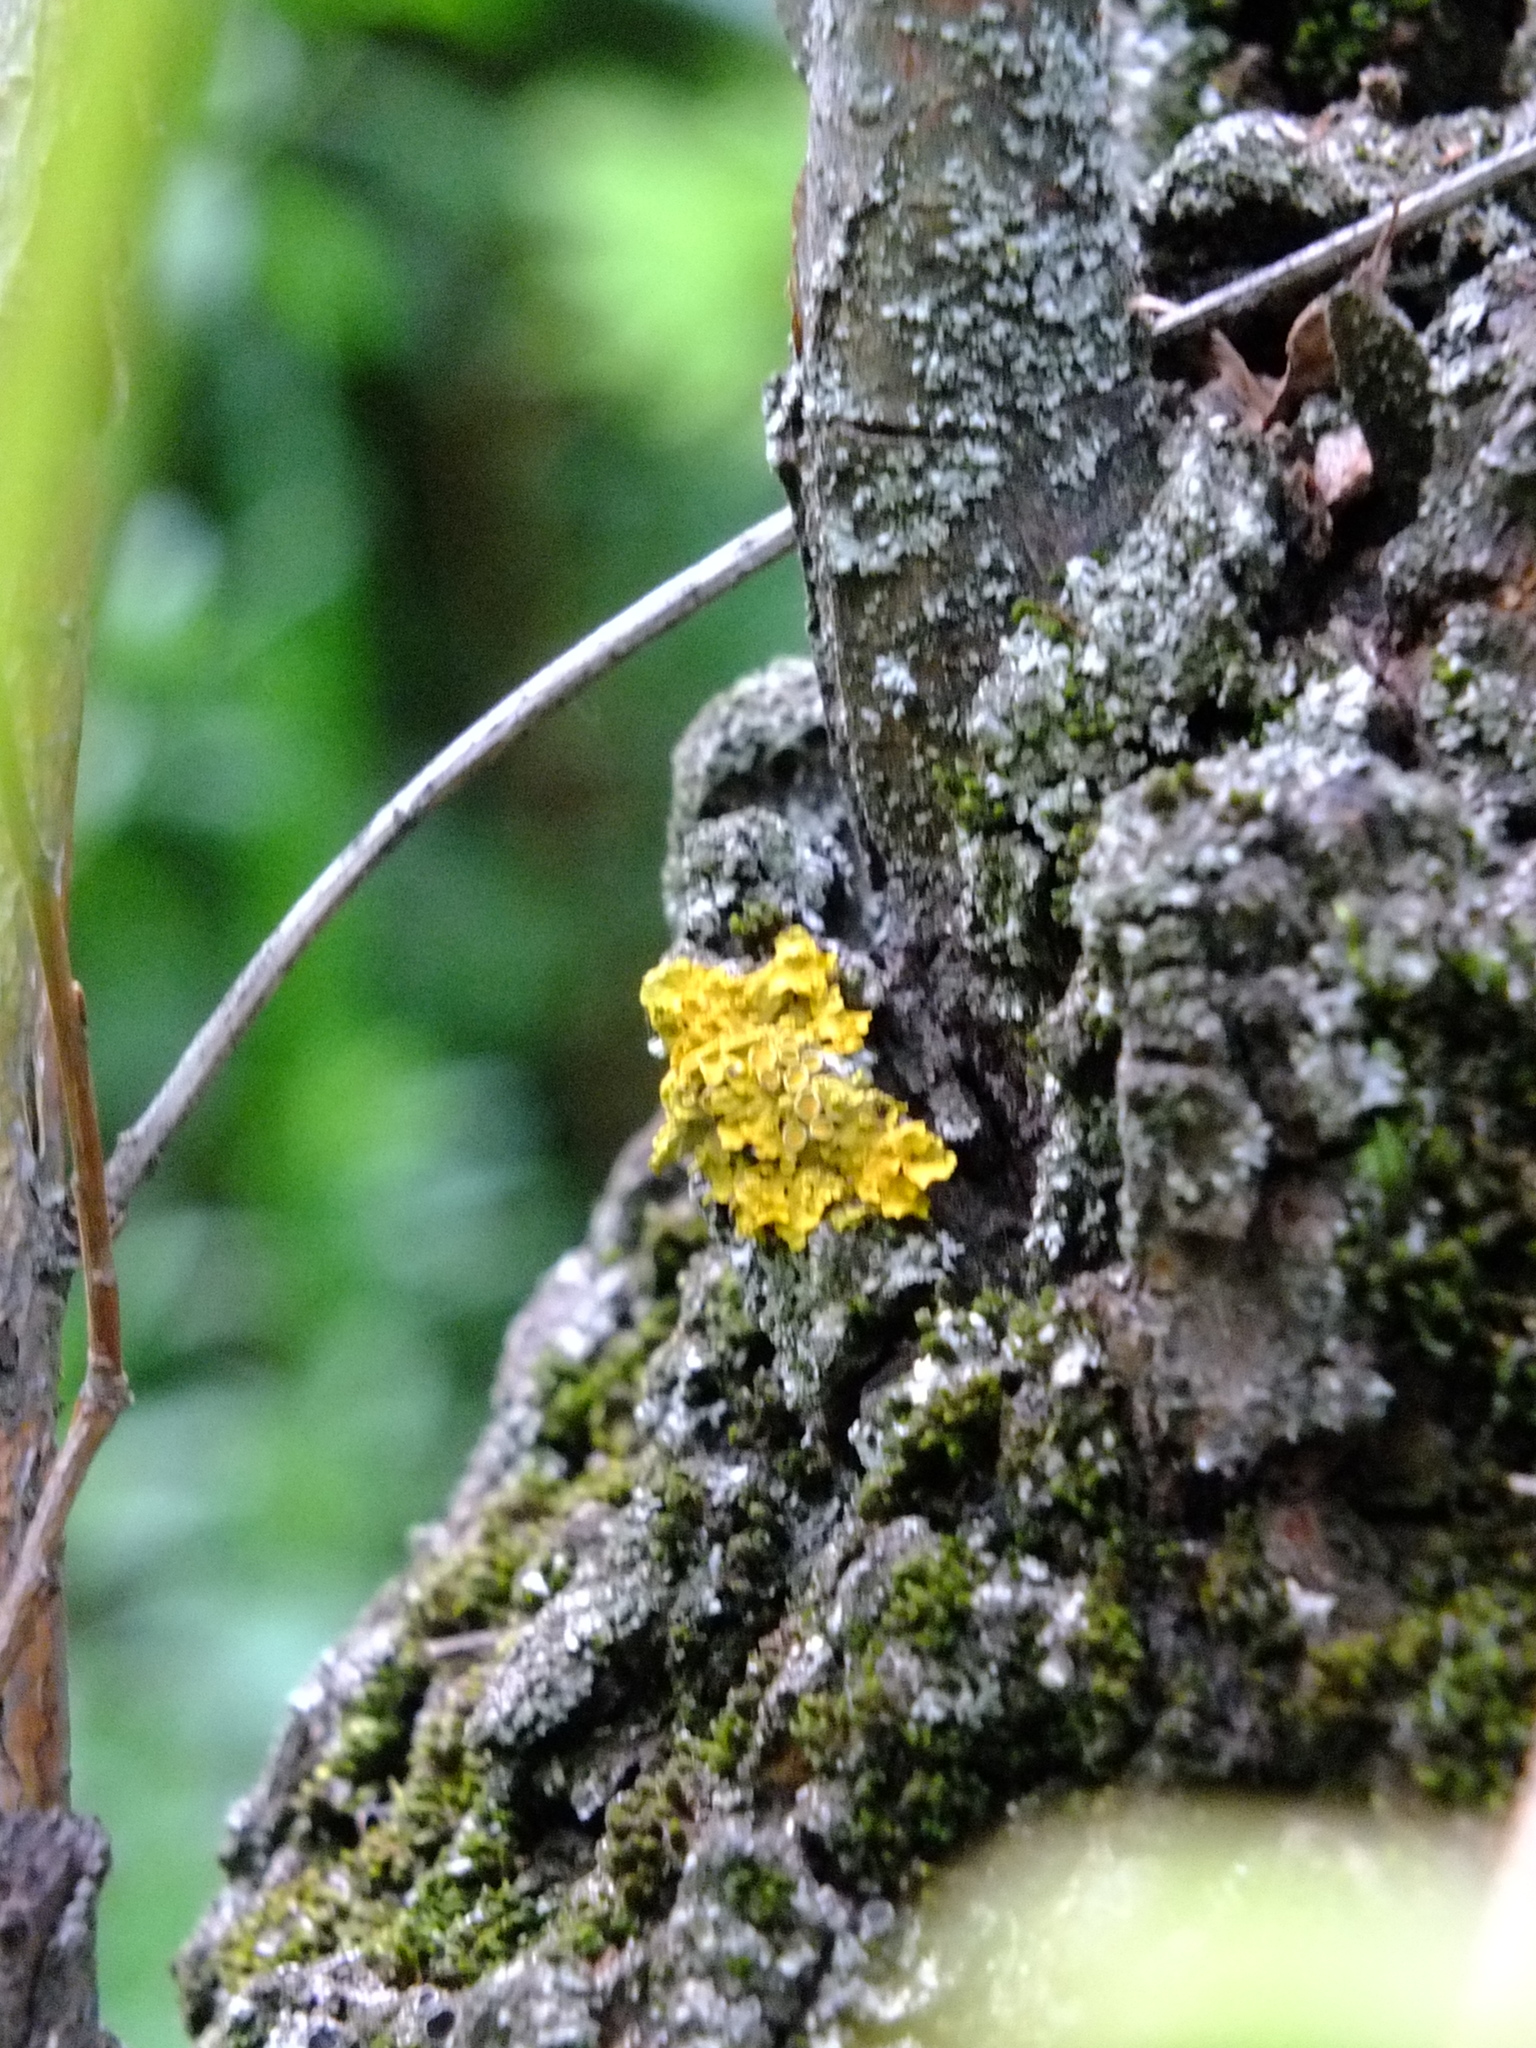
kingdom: Fungi
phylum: Ascomycota
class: Lecanoromycetes
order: Teloschistales
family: Teloschistaceae
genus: Xanthoria
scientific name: Xanthoria parietina
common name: Common orange lichen
